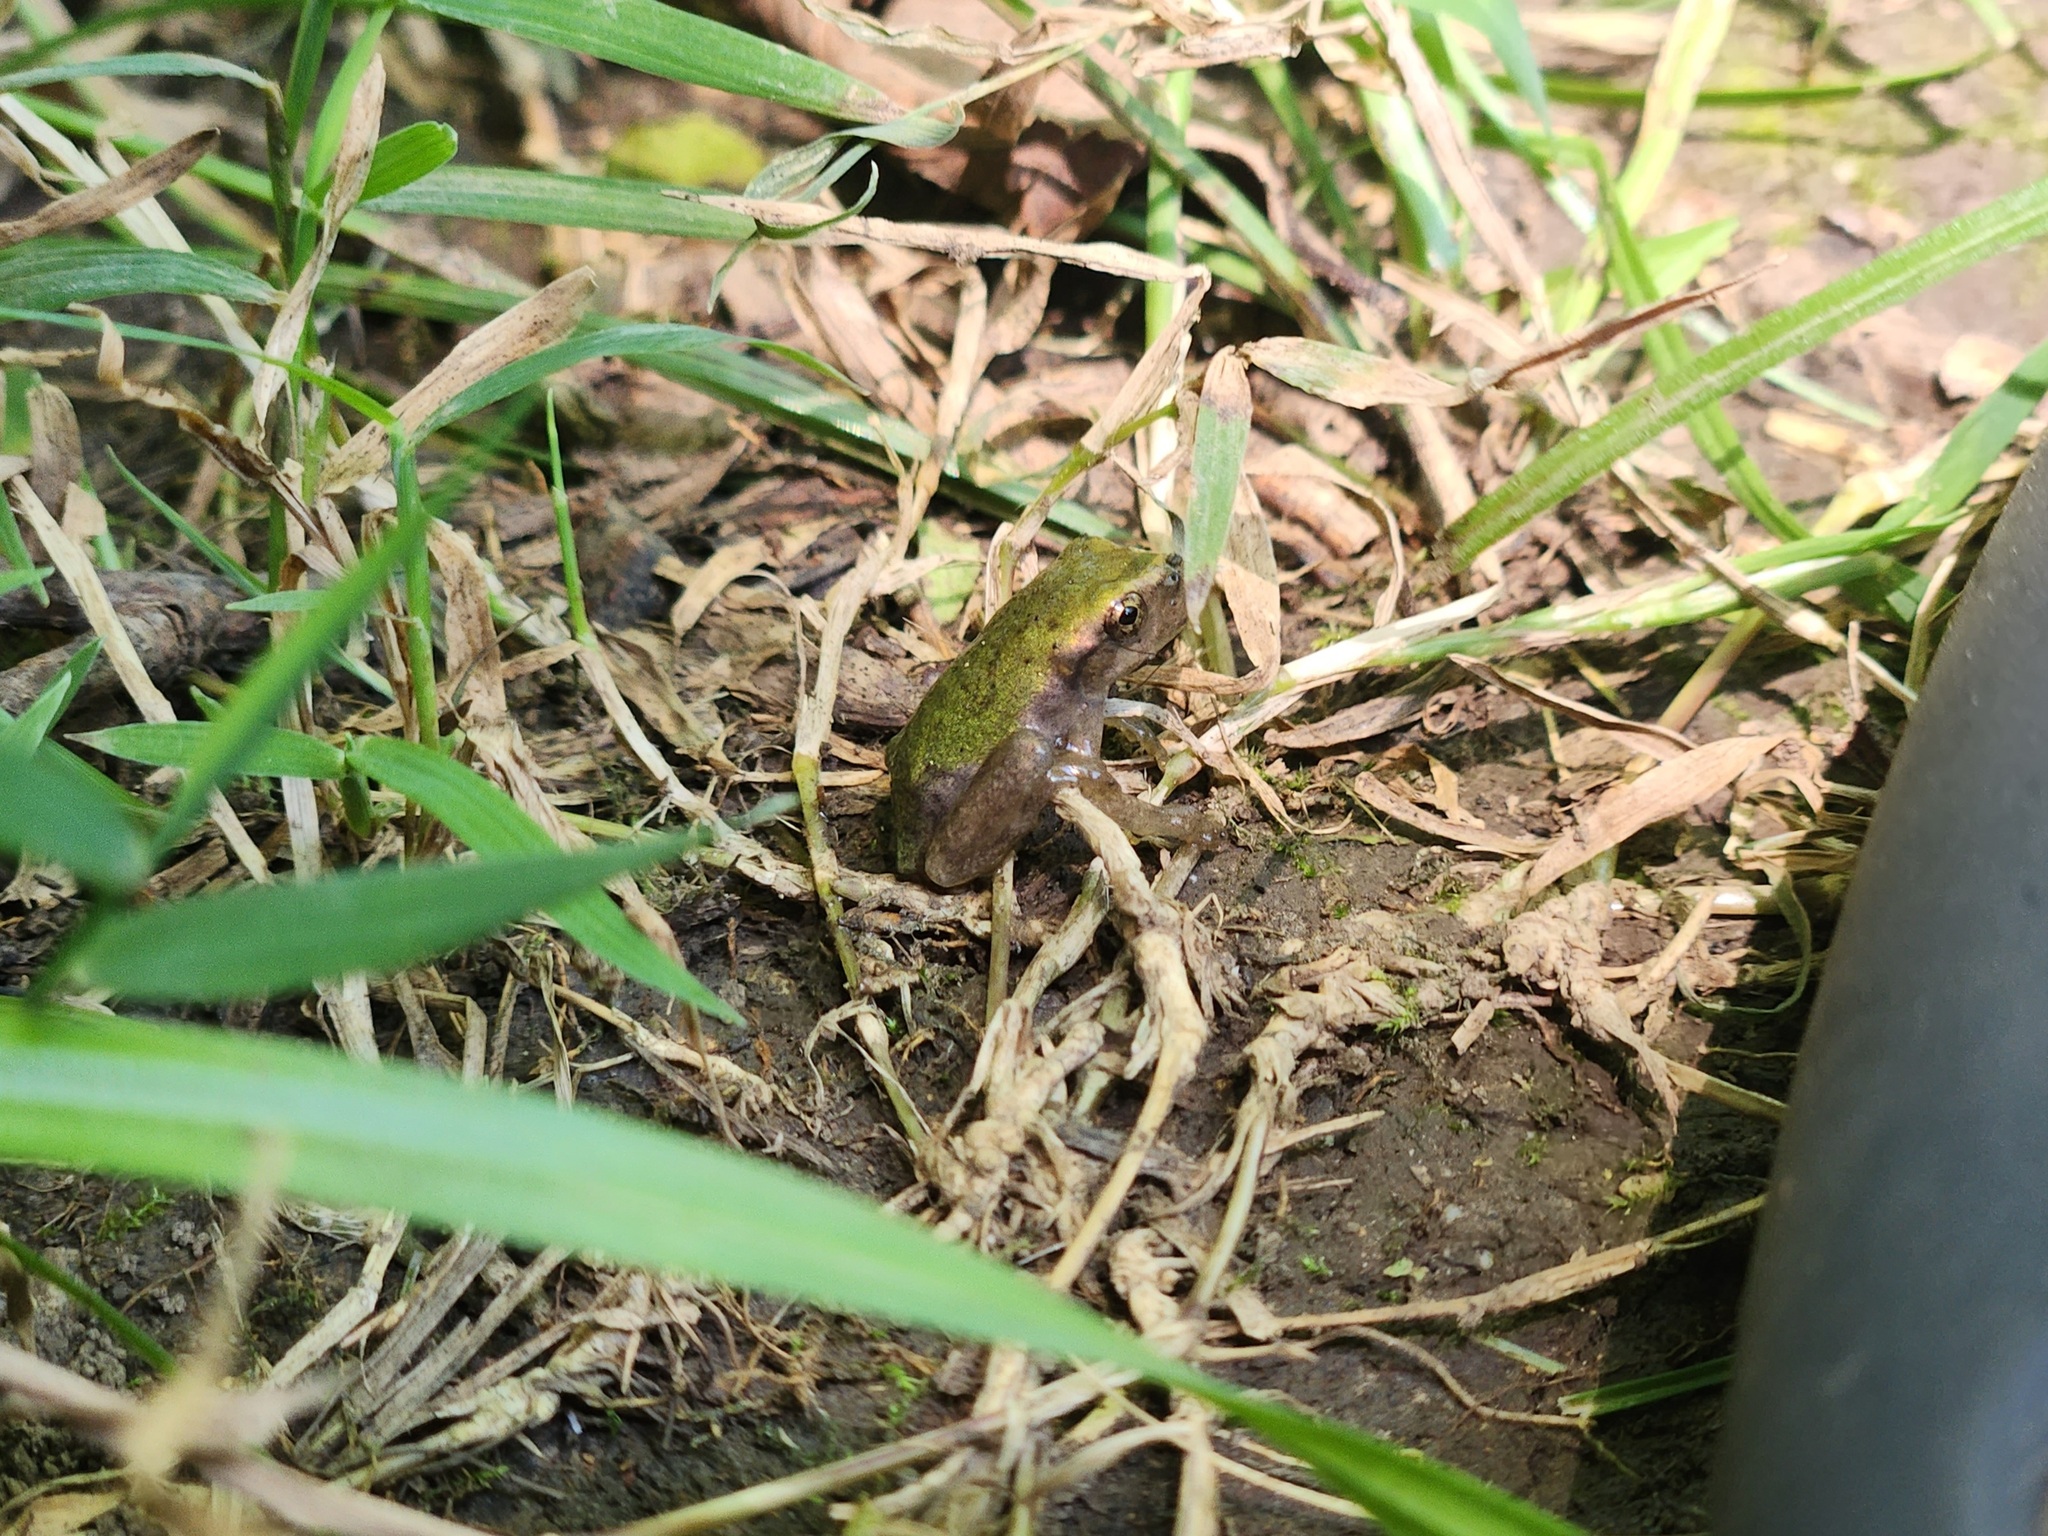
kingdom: Animalia
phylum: Chordata
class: Amphibia
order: Anura
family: Hylidae
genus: Dryophytes
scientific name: Dryophytes chrysoscelis
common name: Cope's gray treefrog
